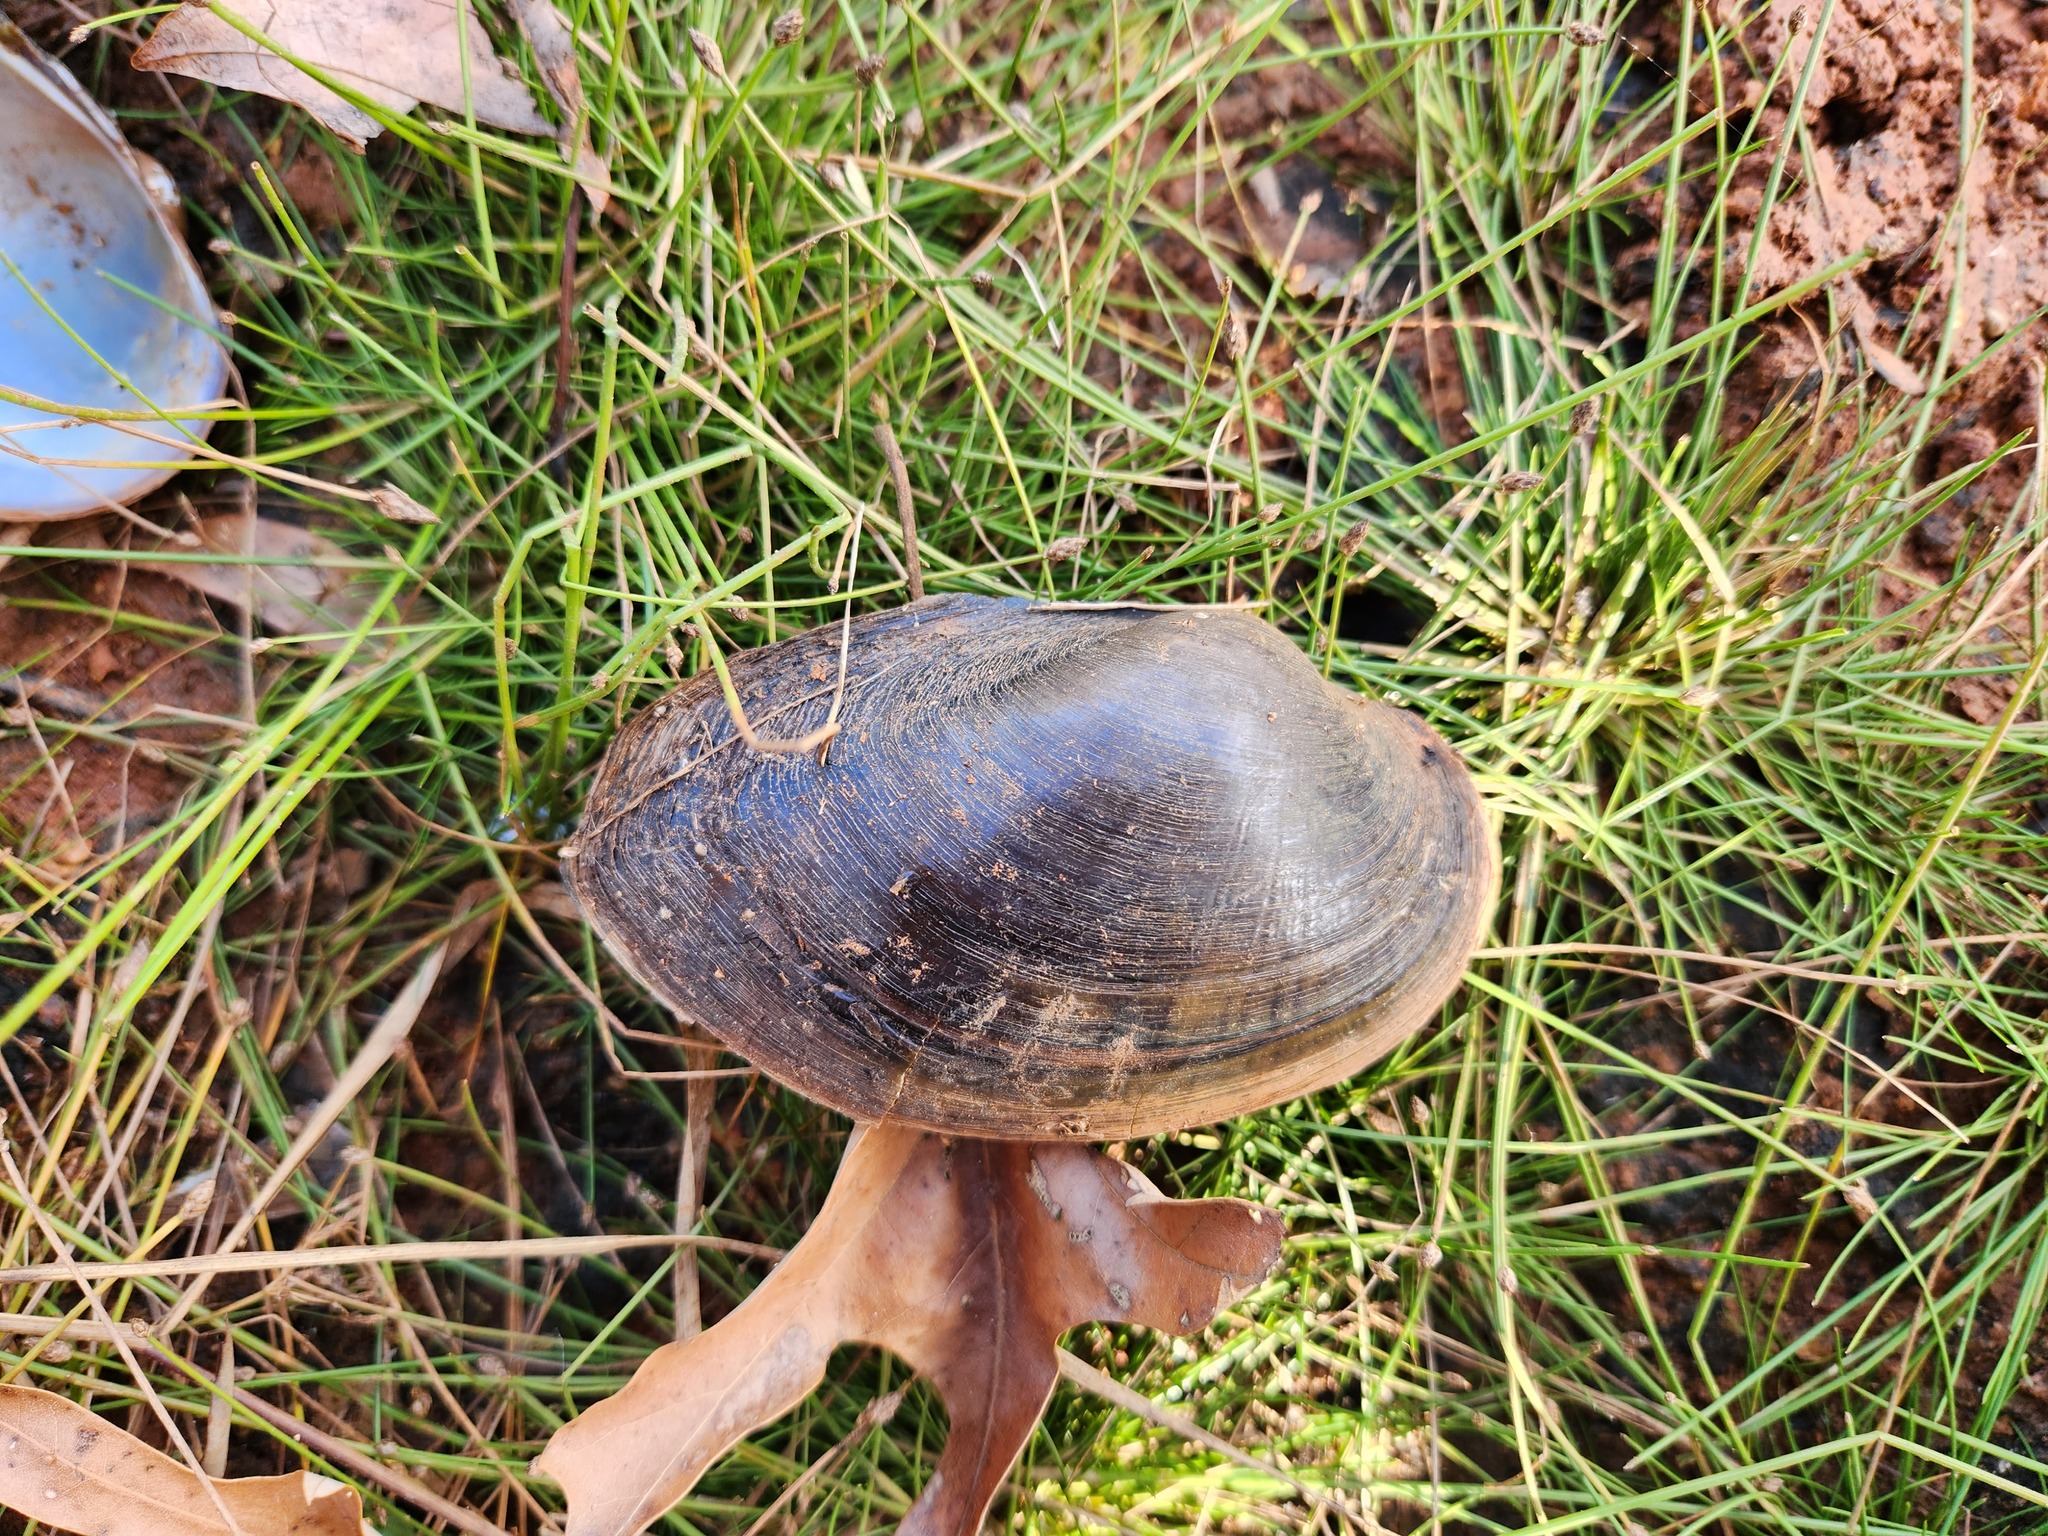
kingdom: Animalia
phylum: Mollusca
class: Bivalvia
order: Unionida
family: Unionidae
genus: Pyganodon
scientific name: Pyganodon grandis
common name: Giant floater
